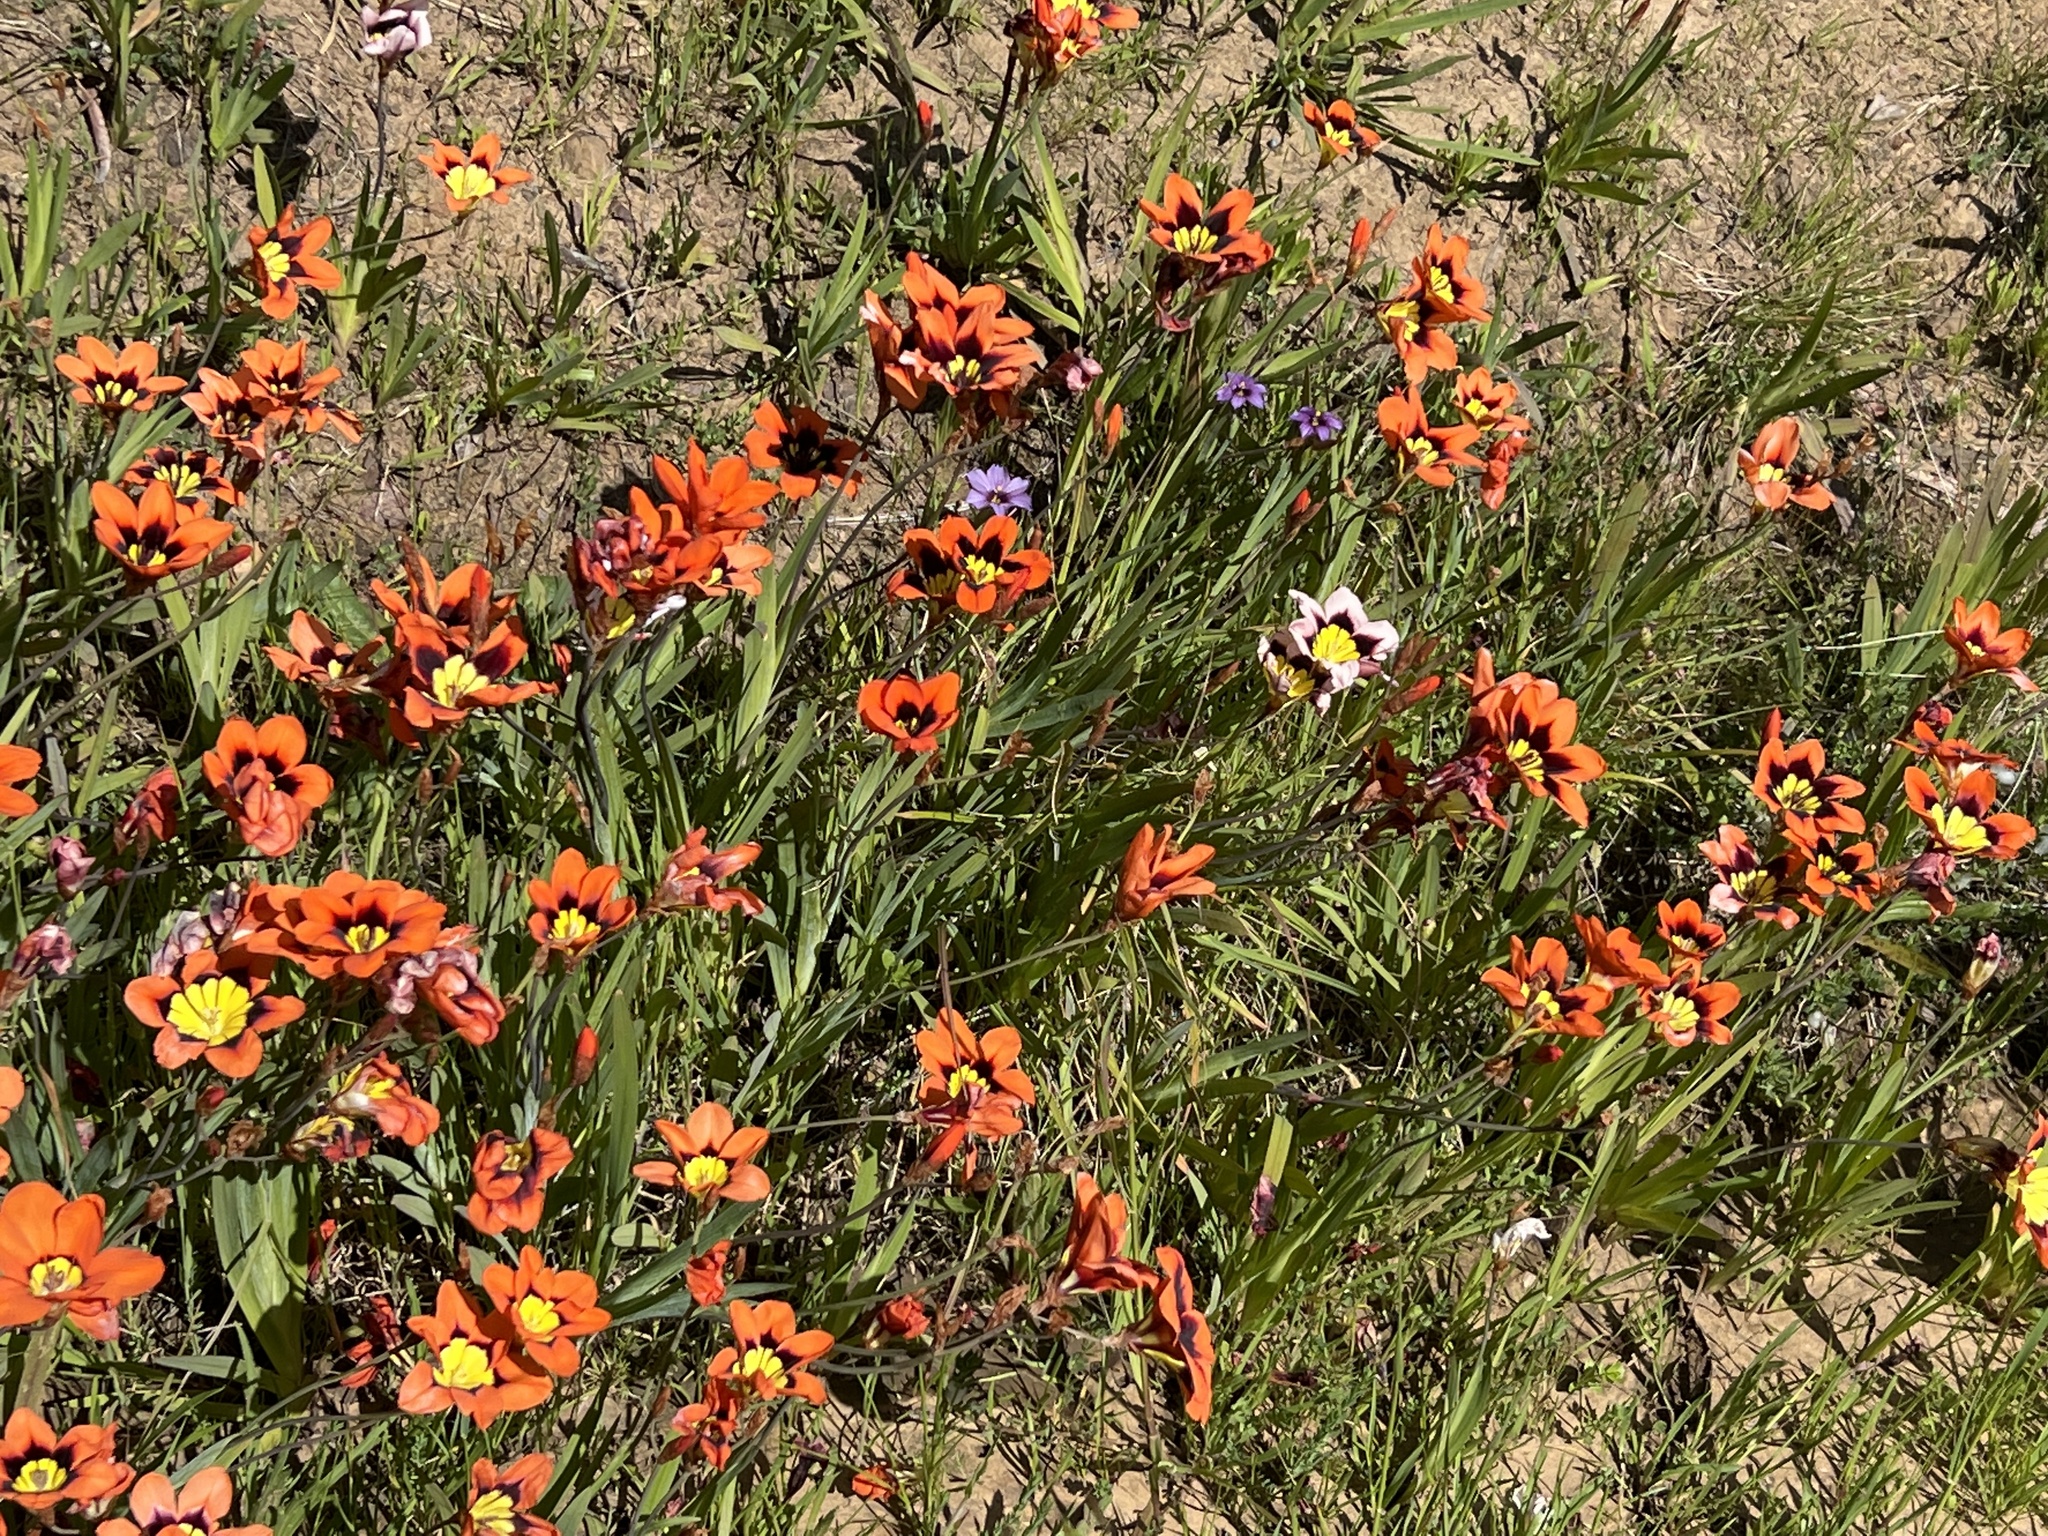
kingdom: Plantae
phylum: Tracheophyta
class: Liliopsida
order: Asparagales
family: Iridaceae
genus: Sparaxis
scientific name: Sparaxis tricolor
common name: Wandflower
